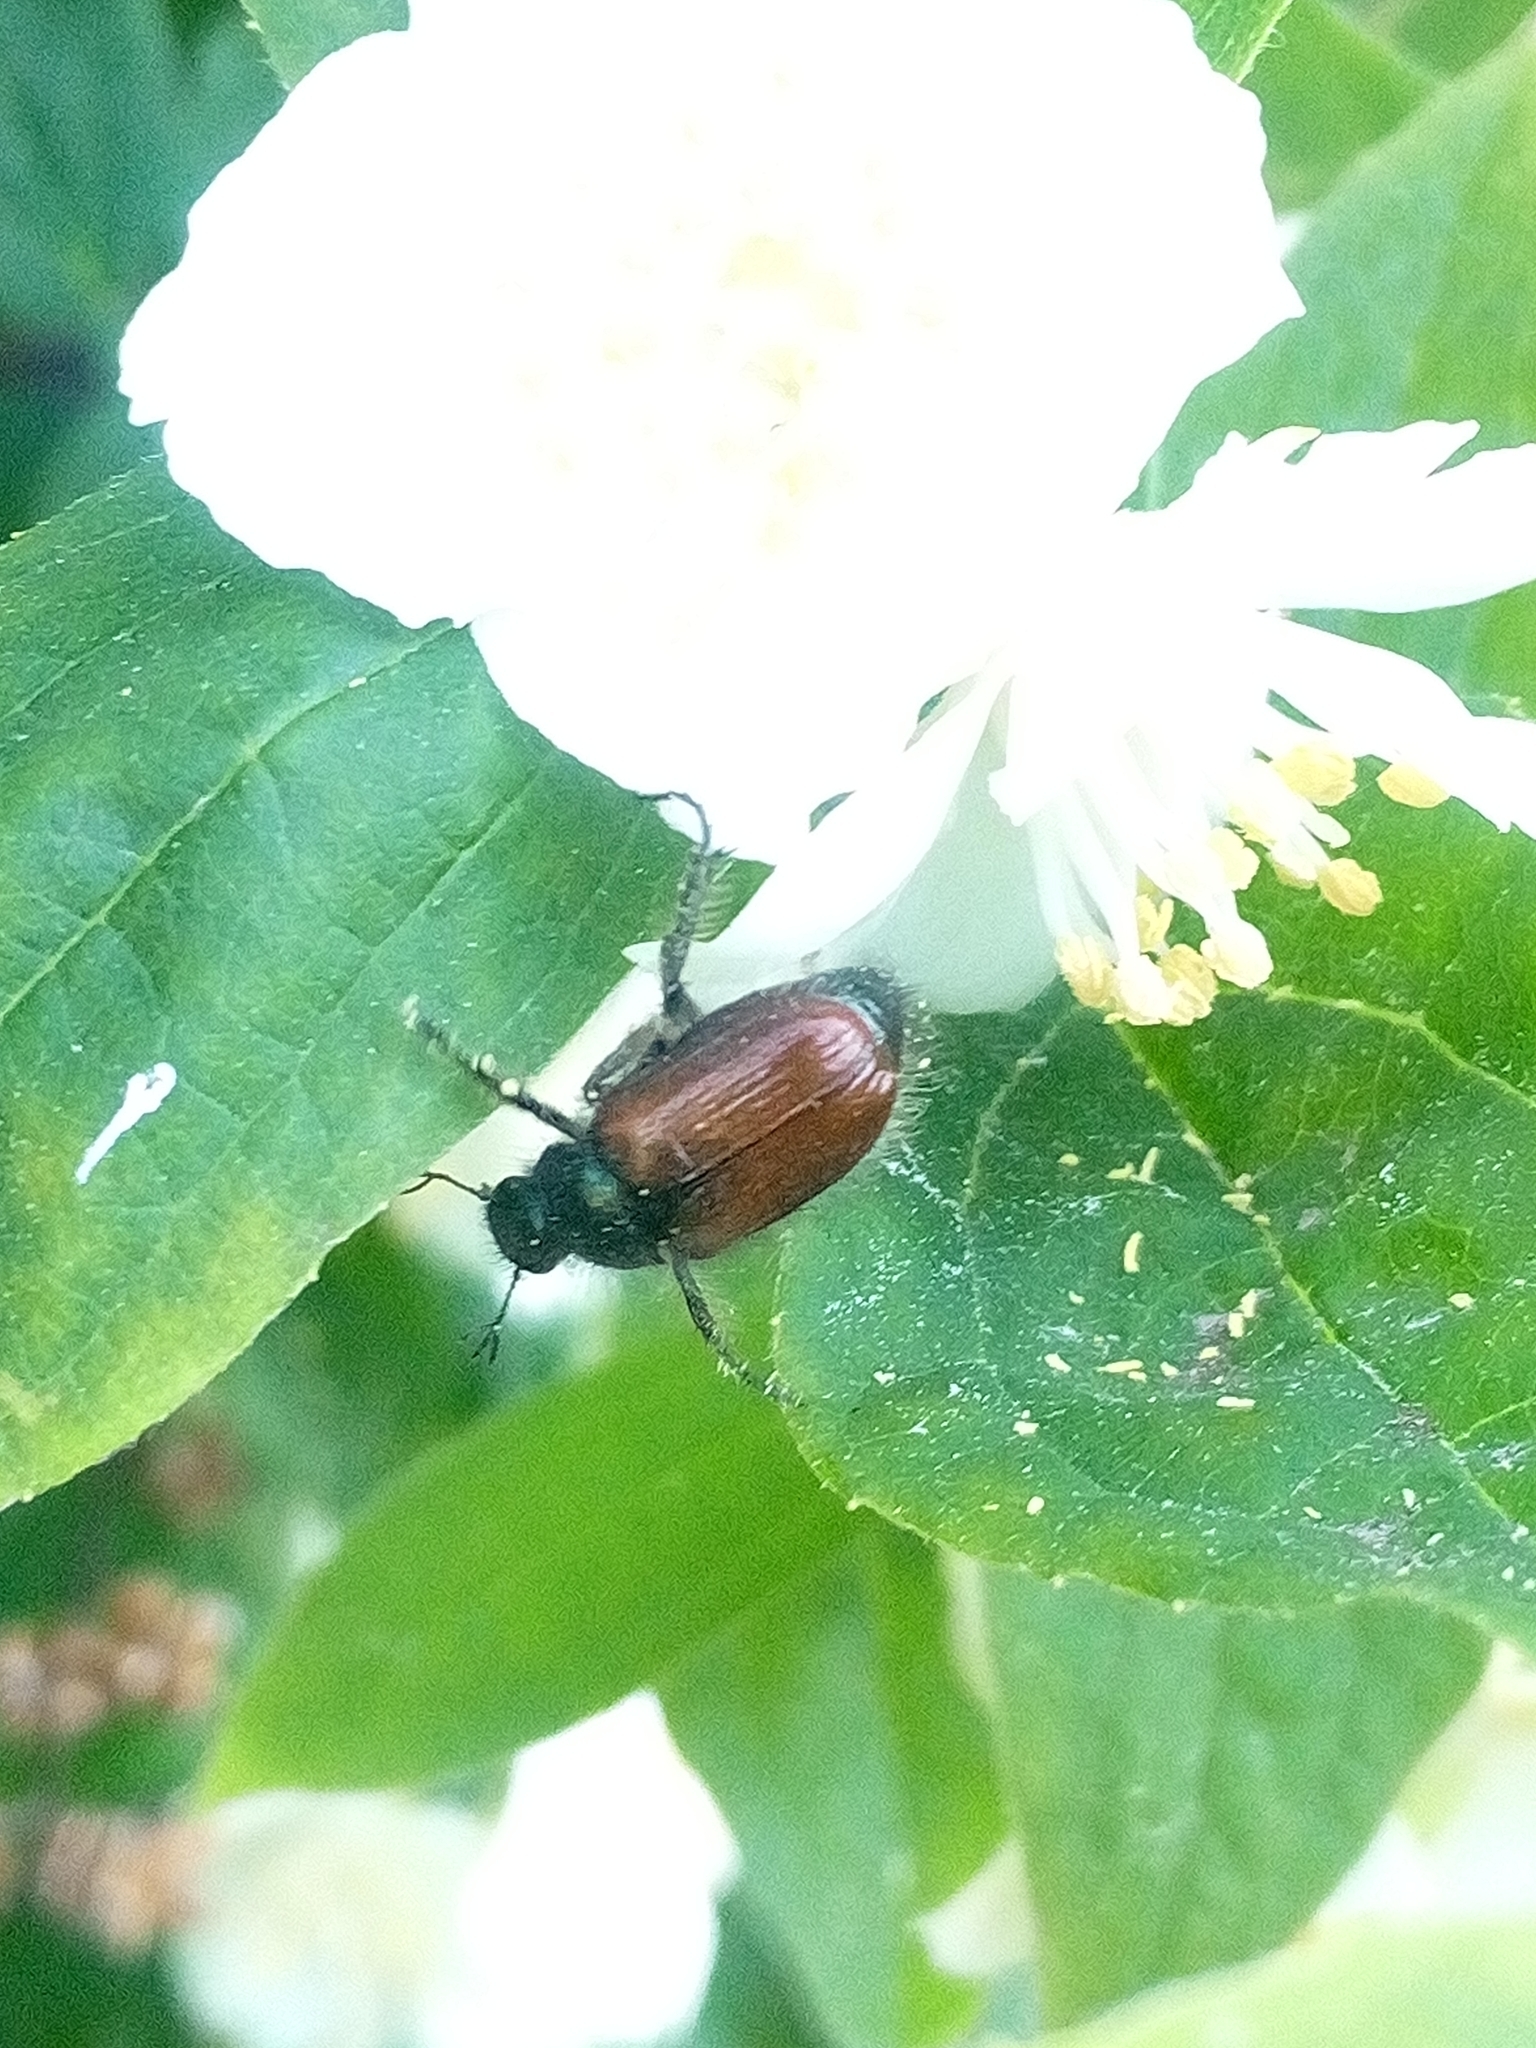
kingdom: Animalia
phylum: Arthropoda
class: Insecta
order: Coleoptera
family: Scarabaeidae
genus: Phyllopertha
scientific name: Phyllopertha horticola
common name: Garden chafer
